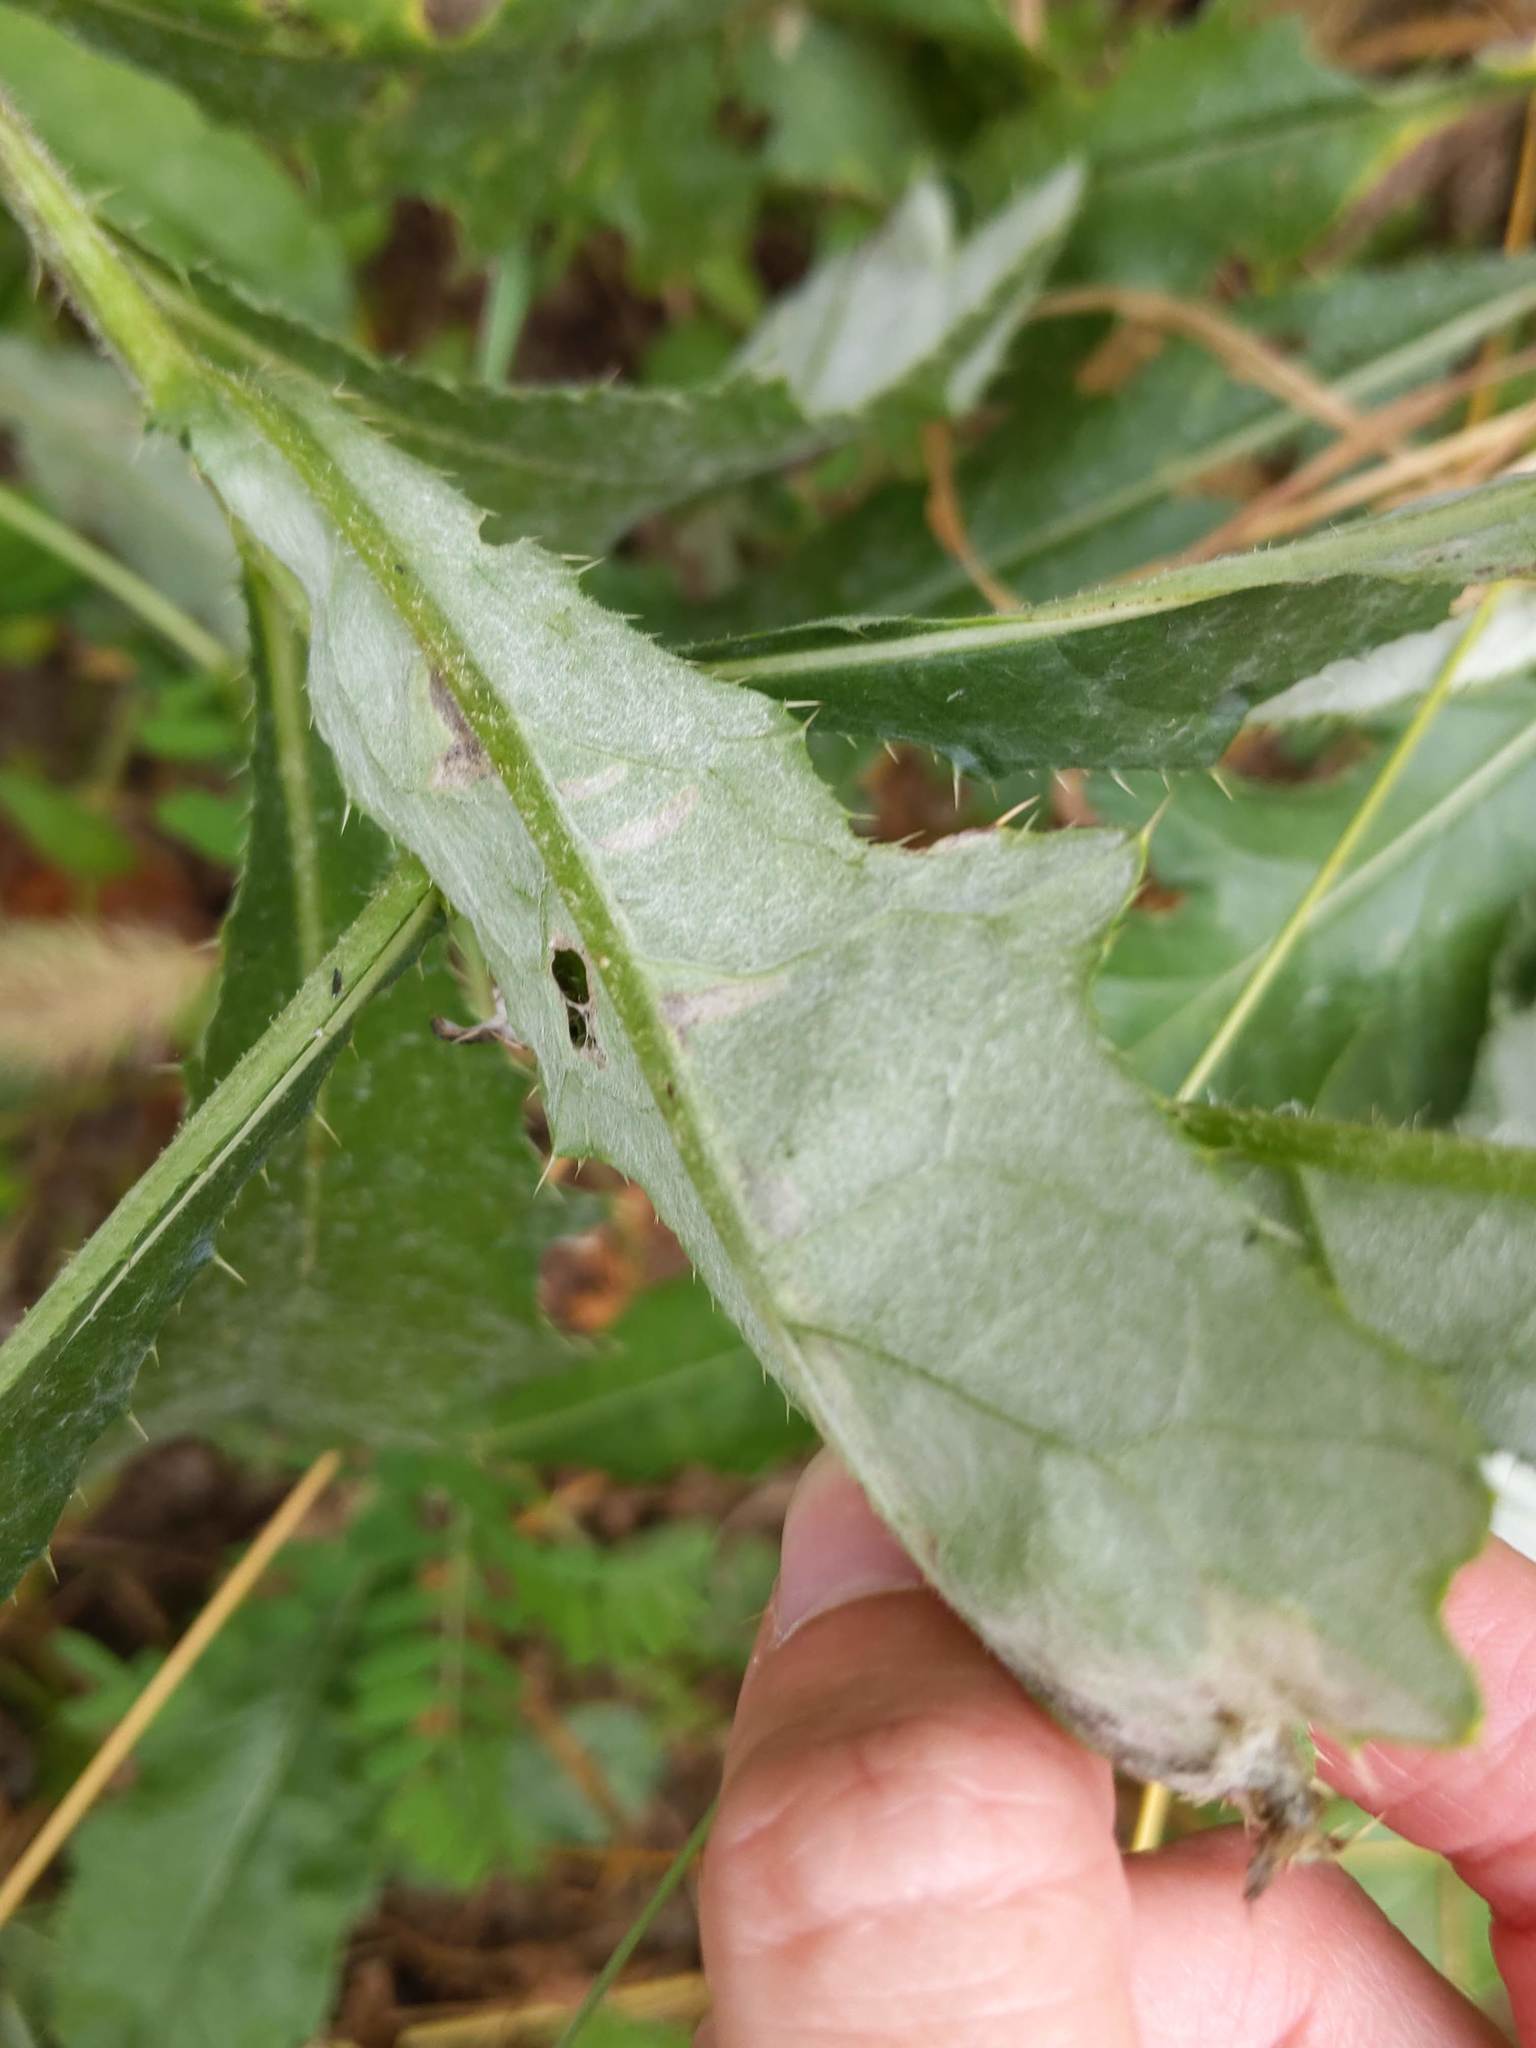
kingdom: Animalia
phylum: Arthropoda
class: Insecta
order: Lepidoptera
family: Gelechiidae
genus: Scrobipalpa
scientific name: Scrobipalpa acuminatella
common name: Pointed groundling
